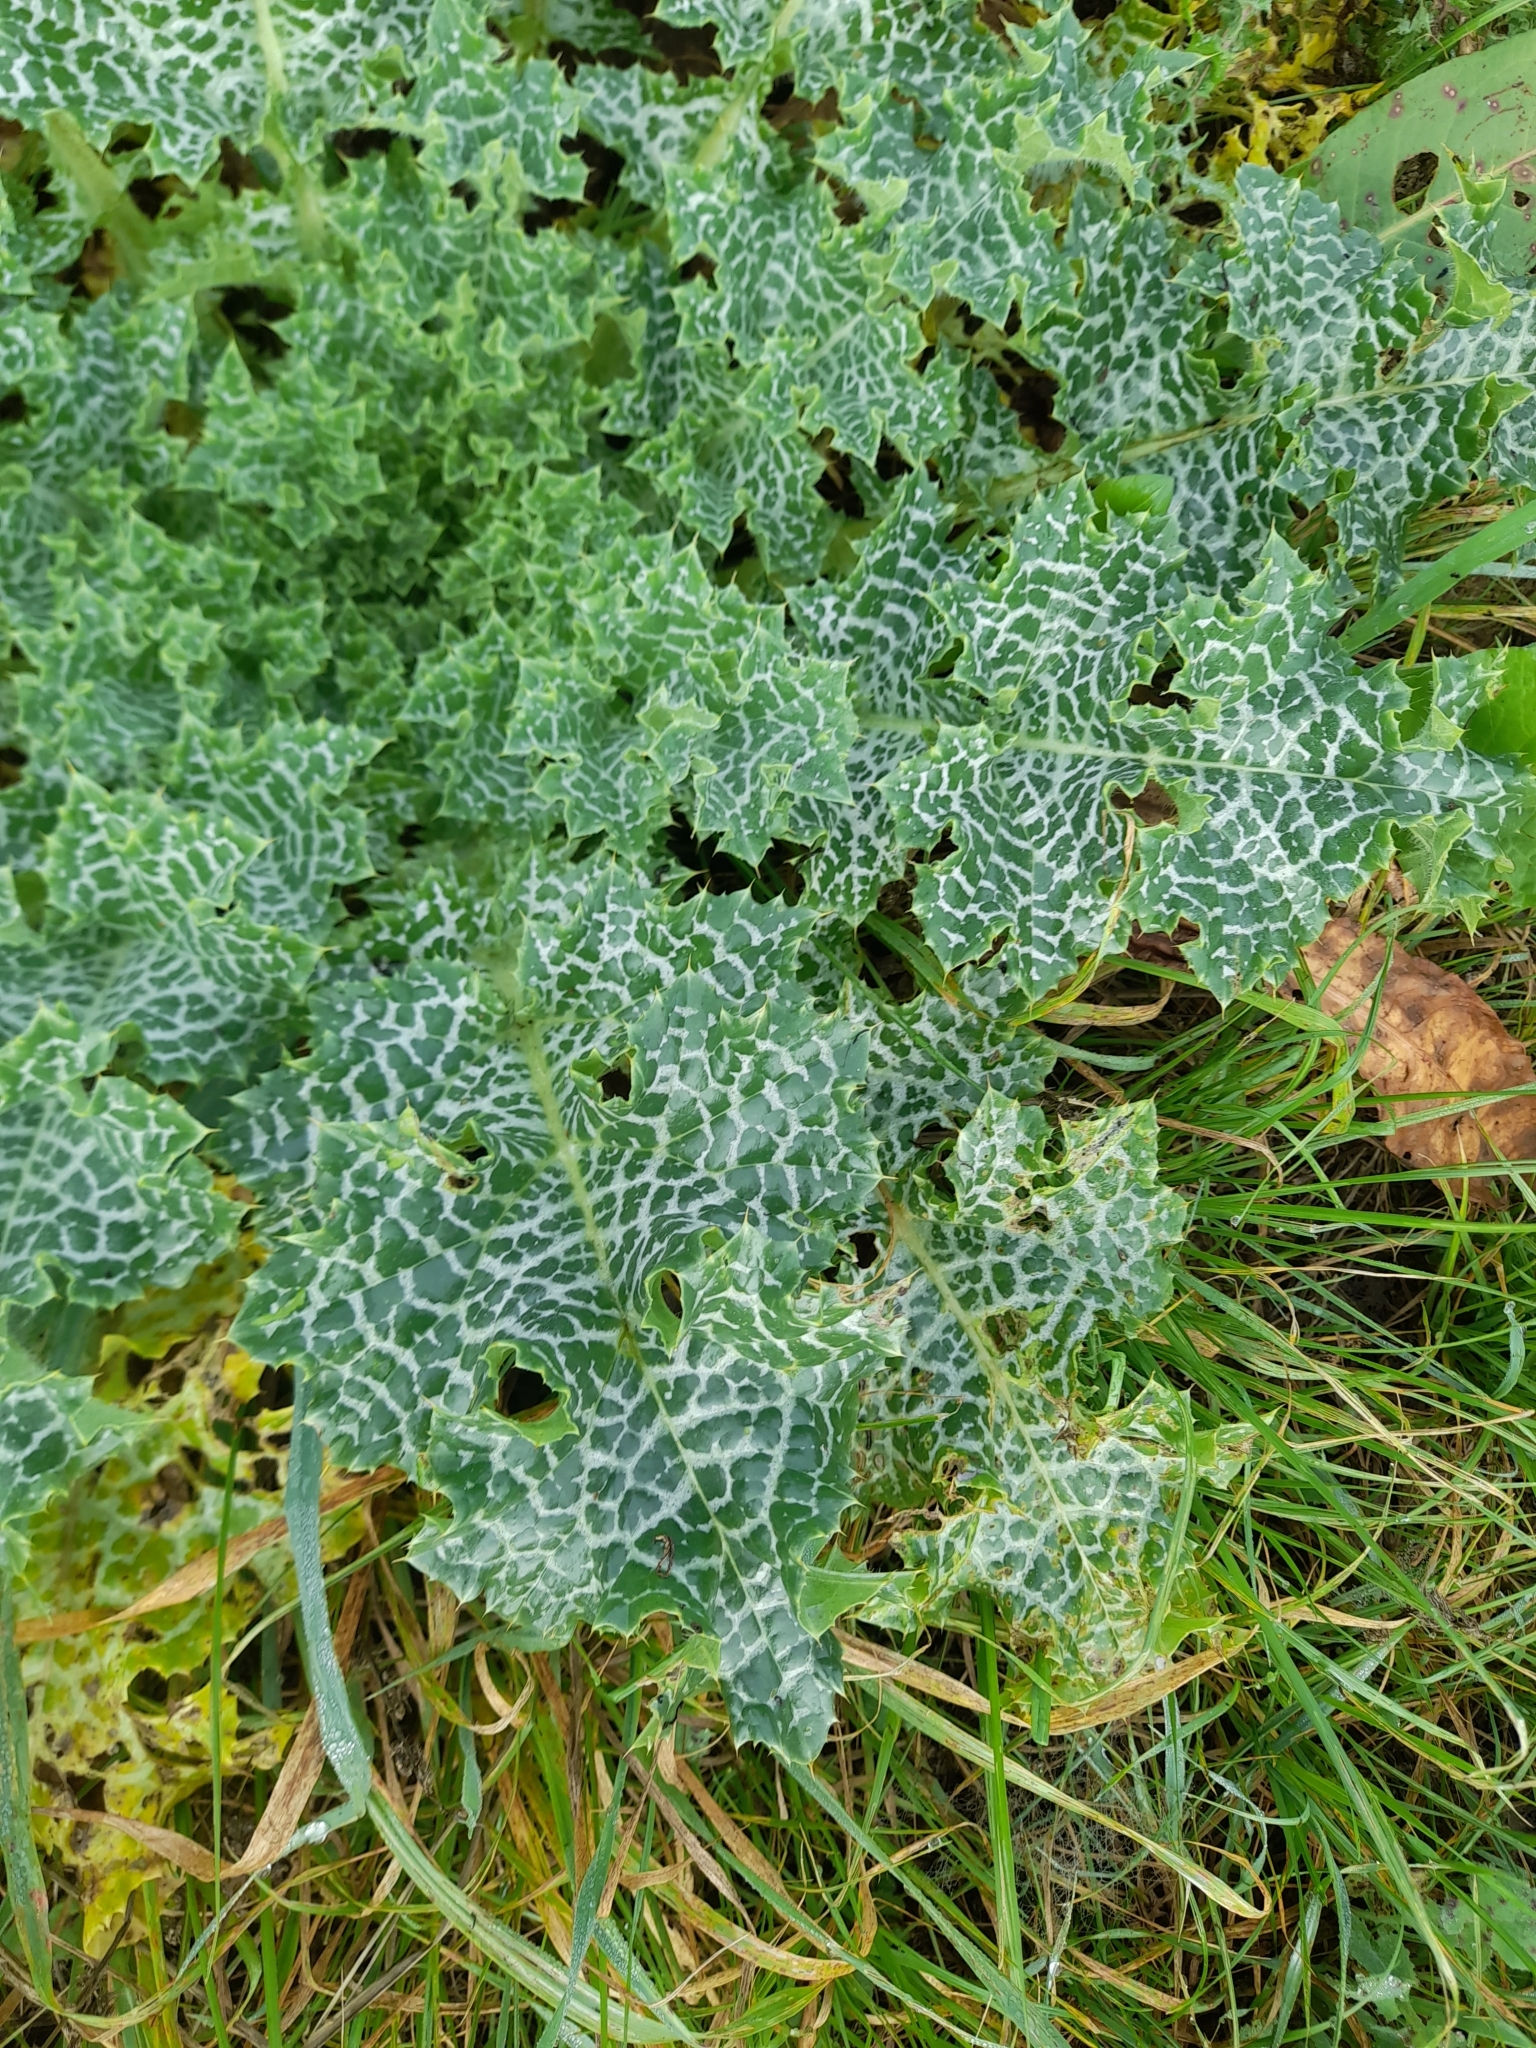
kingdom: Plantae
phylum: Tracheophyta
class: Magnoliopsida
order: Asterales
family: Asteraceae
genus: Silybum
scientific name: Silybum marianum
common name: Milk thistle
